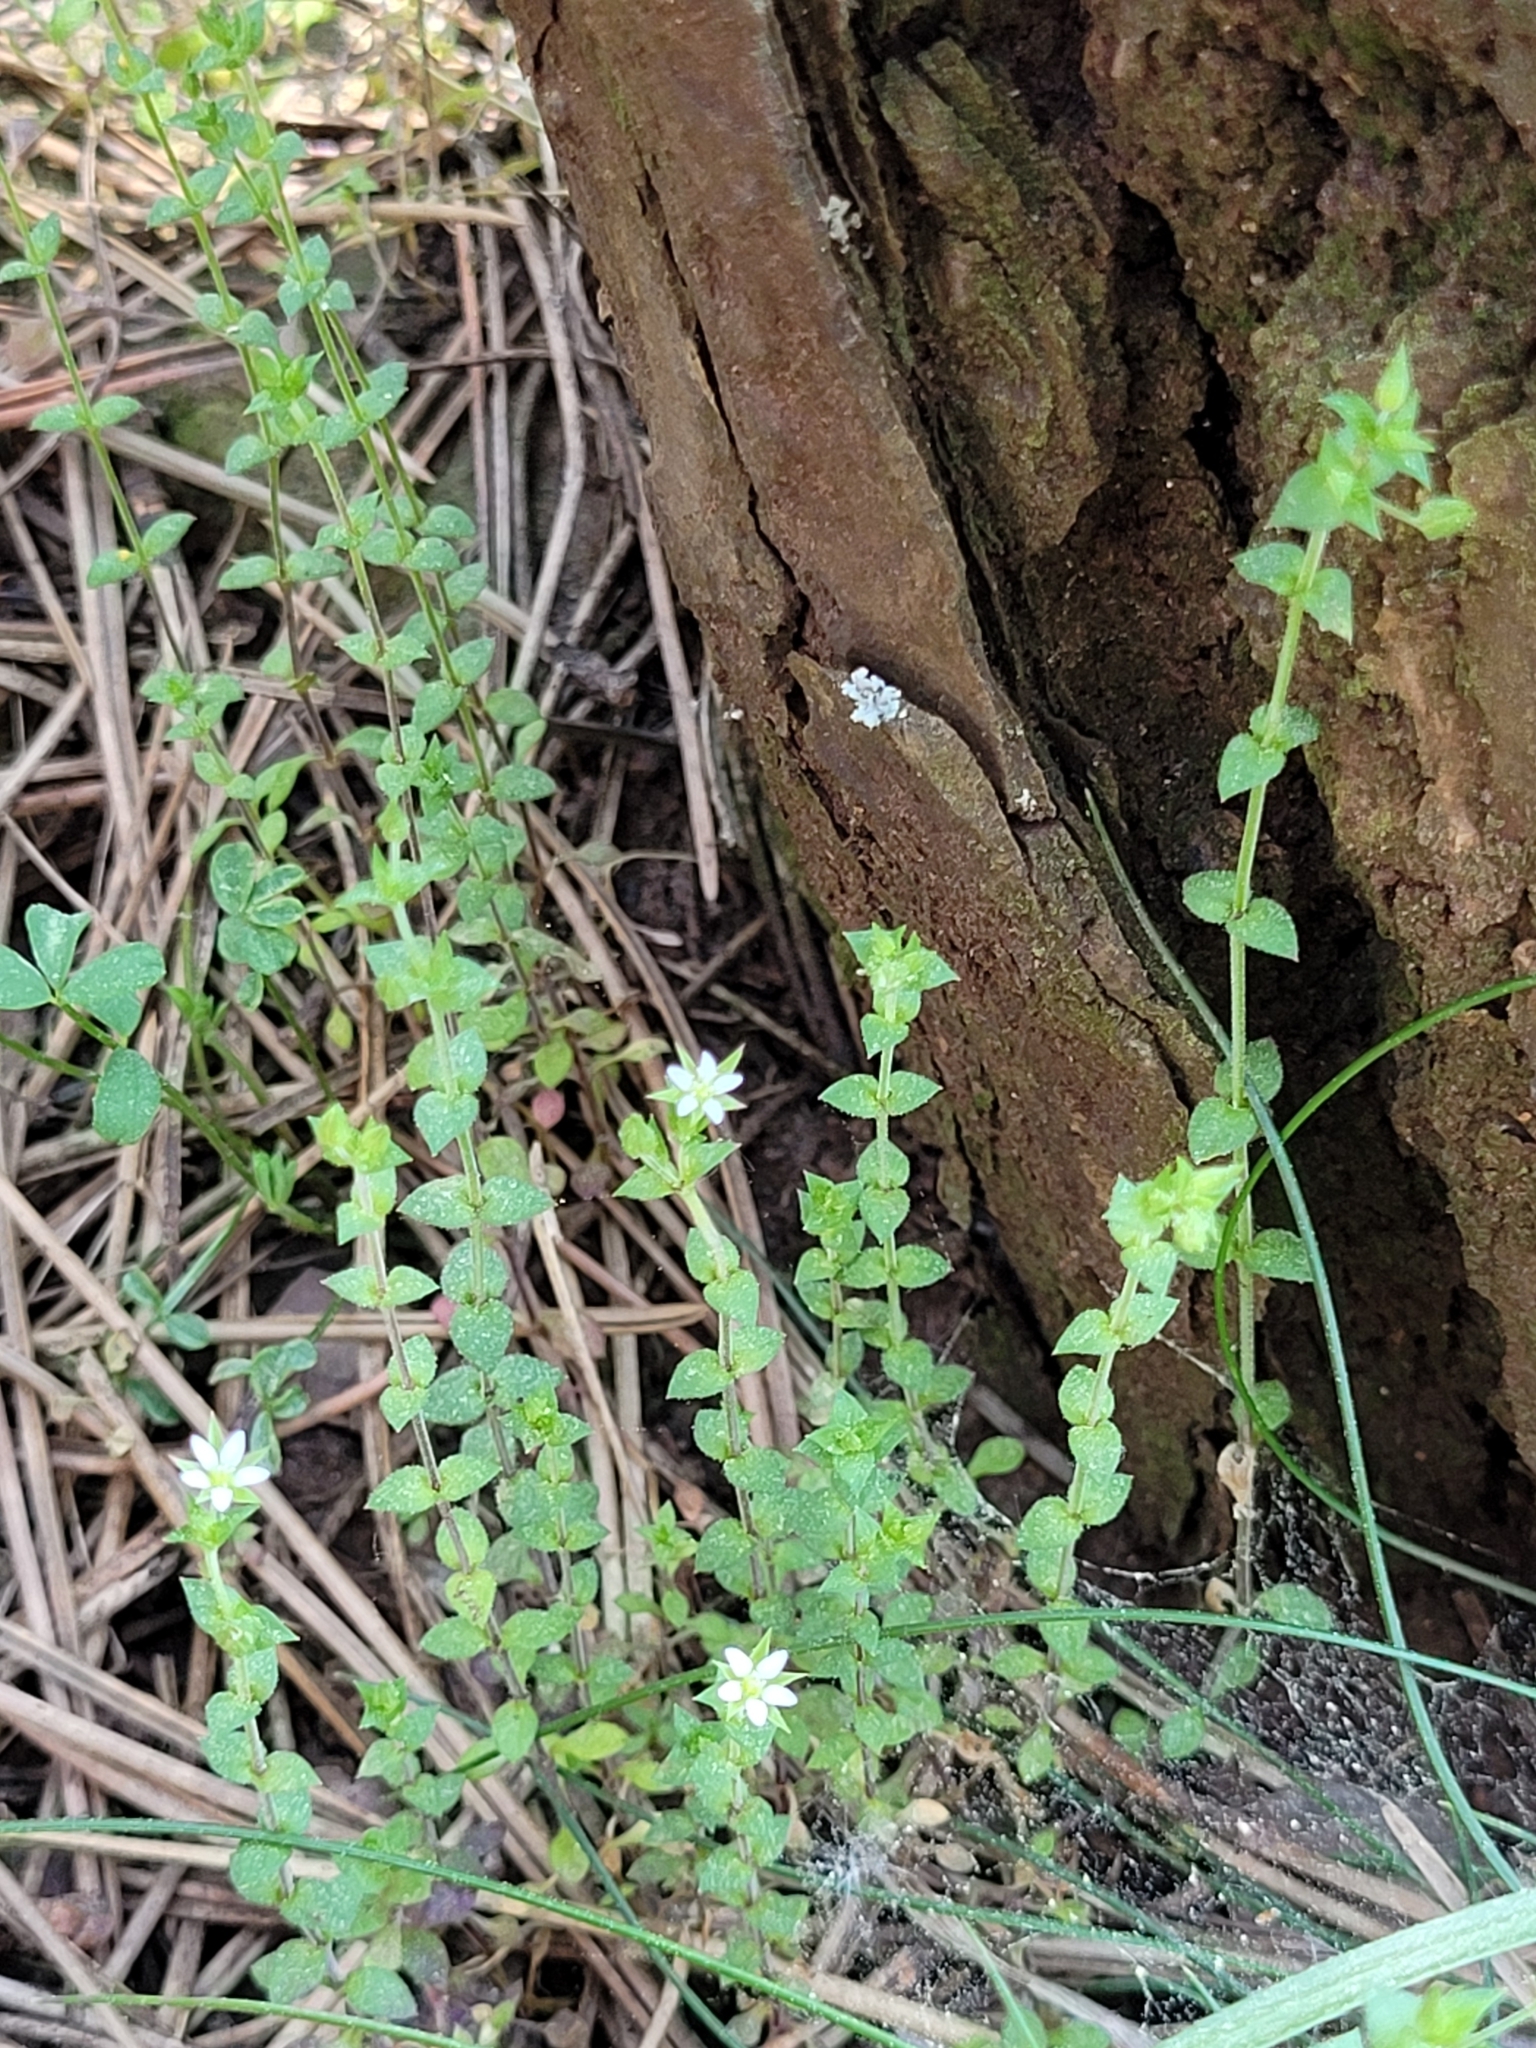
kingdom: Plantae
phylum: Tracheophyta
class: Magnoliopsida
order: Caryophyllales
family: Caryophyllaceae
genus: Arenaria
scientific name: Arenaria serpyllifolia
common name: Thyme-leaved sandwort
